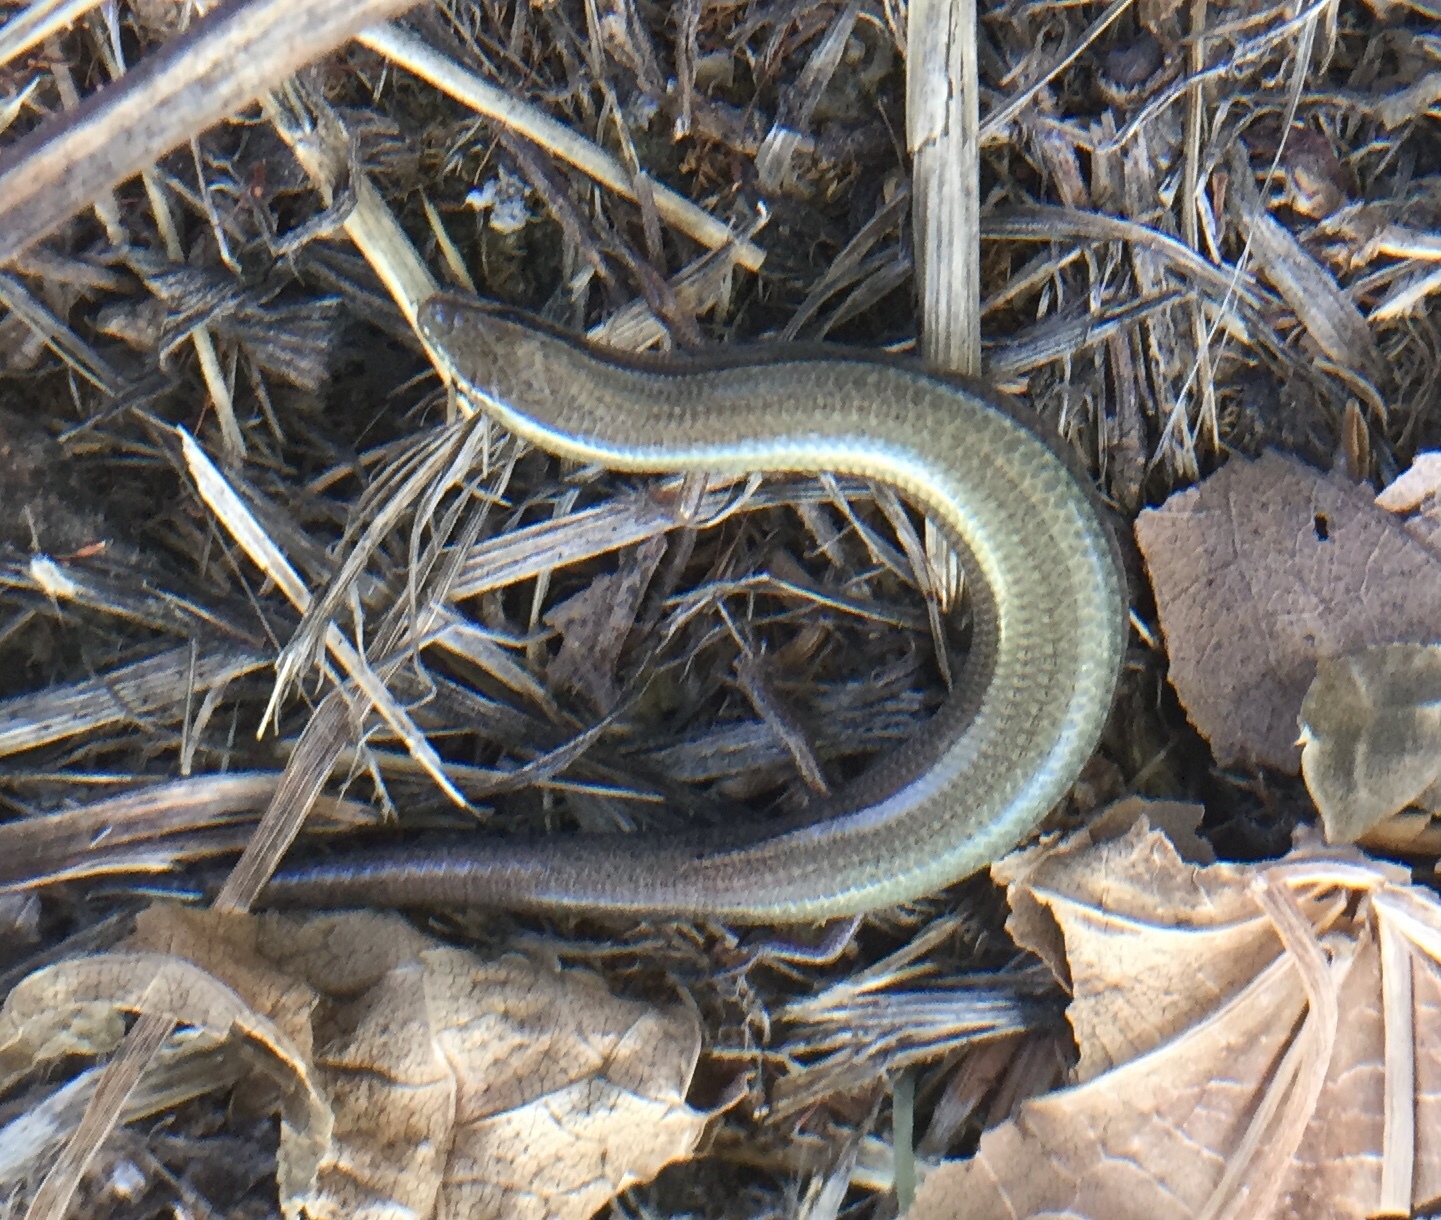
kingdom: Animalia
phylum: Chordata
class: Squamata
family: Scincidae
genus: Ablepharus
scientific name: Ablepharus kitaibelii
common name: Juniper skink
